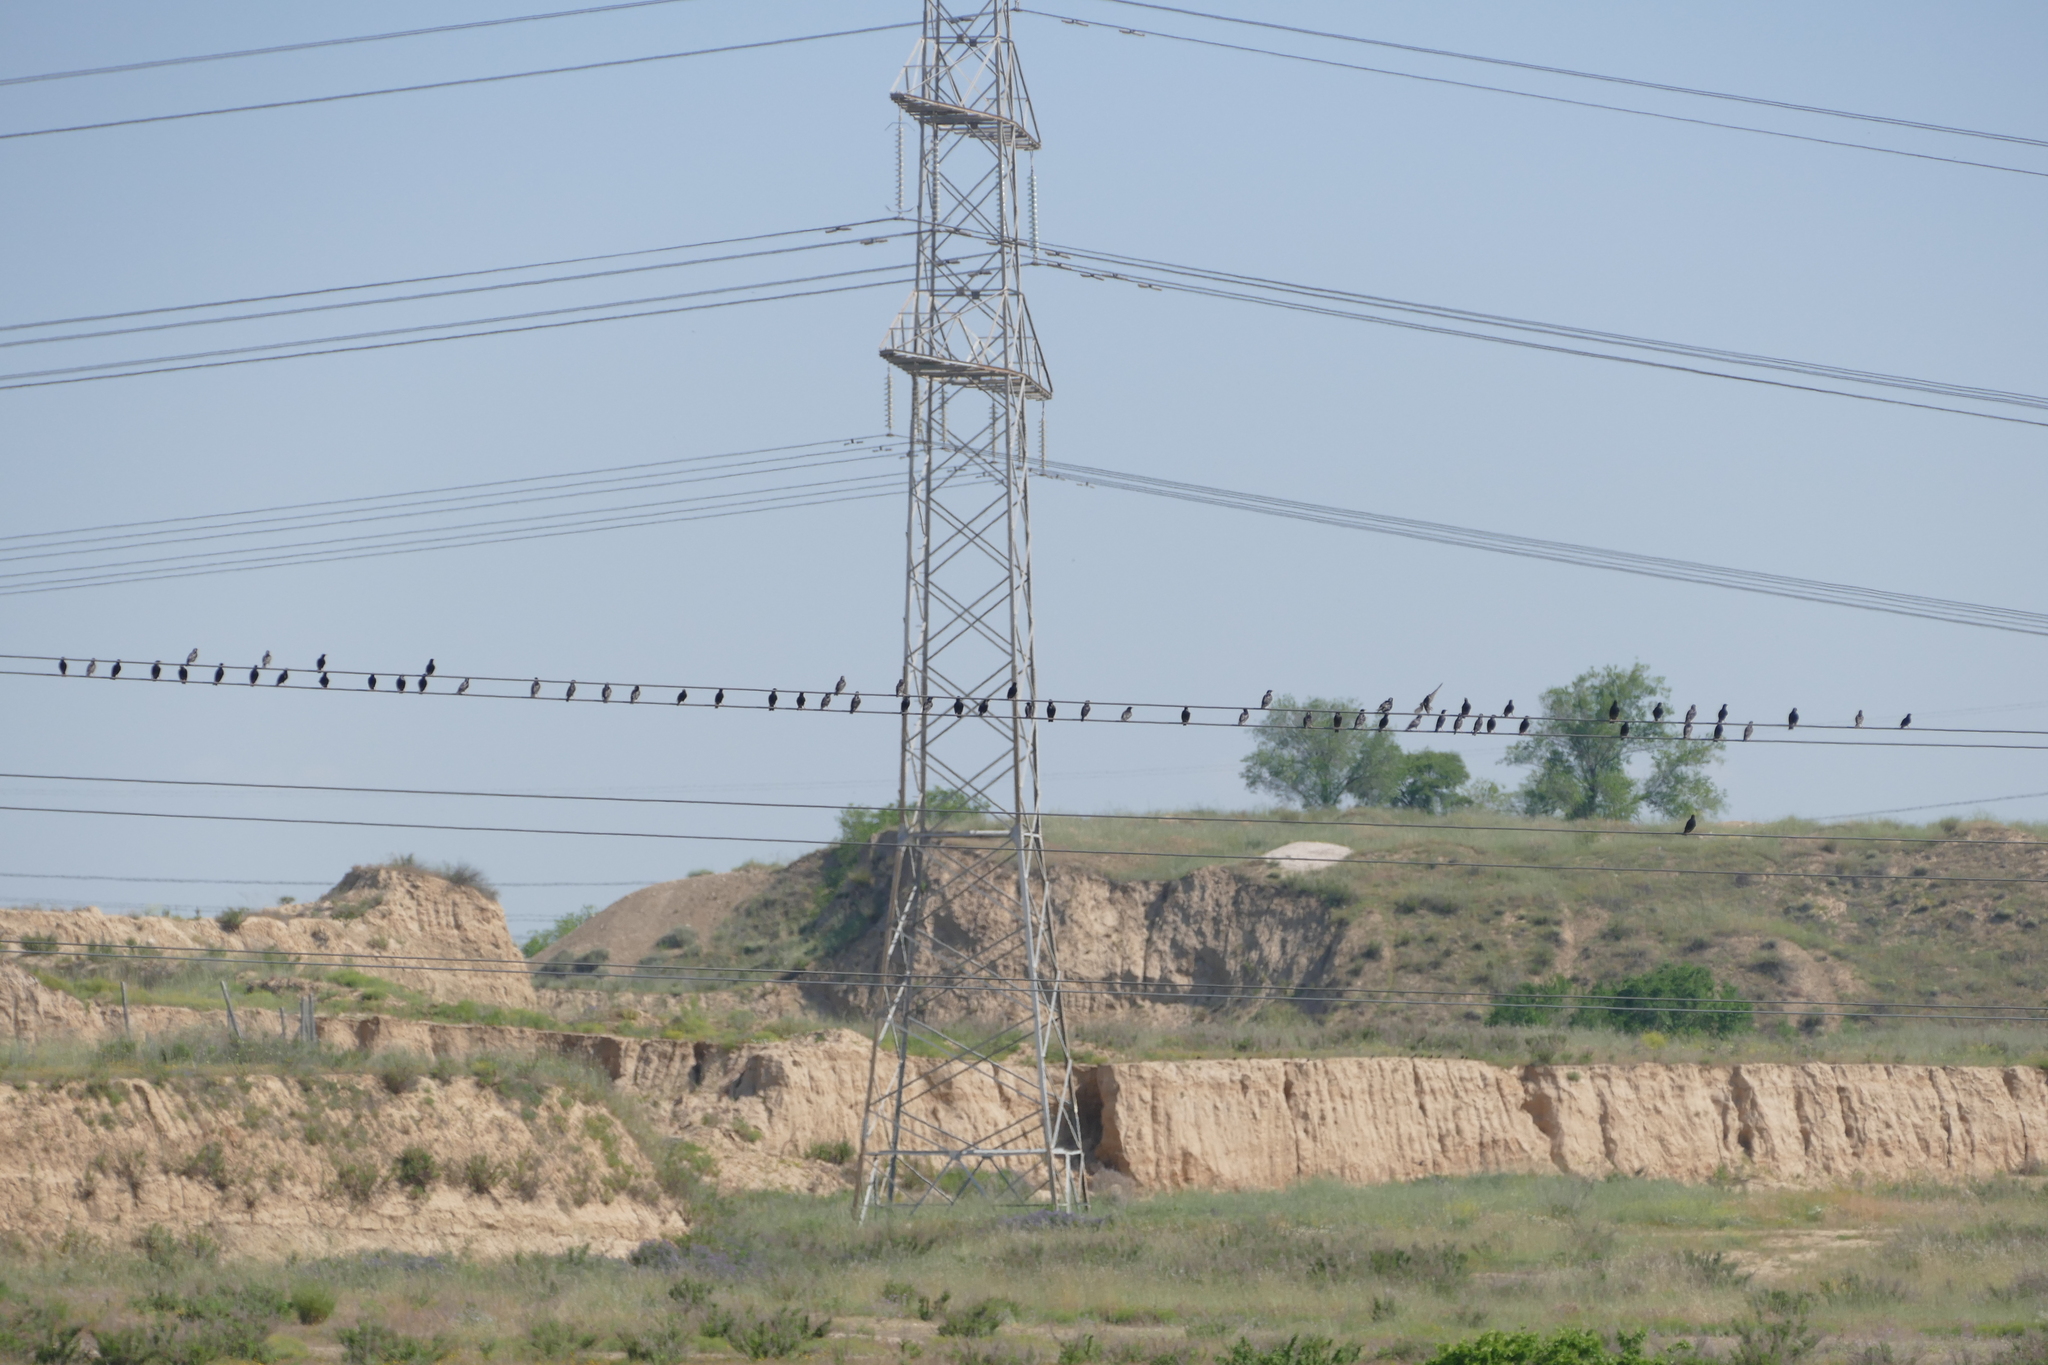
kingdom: Animalia
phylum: Chordata
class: Aves
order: Passeriformes
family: Sturnidae
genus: Sturnus
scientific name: Sturnus unicolor
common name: Spotless starling
